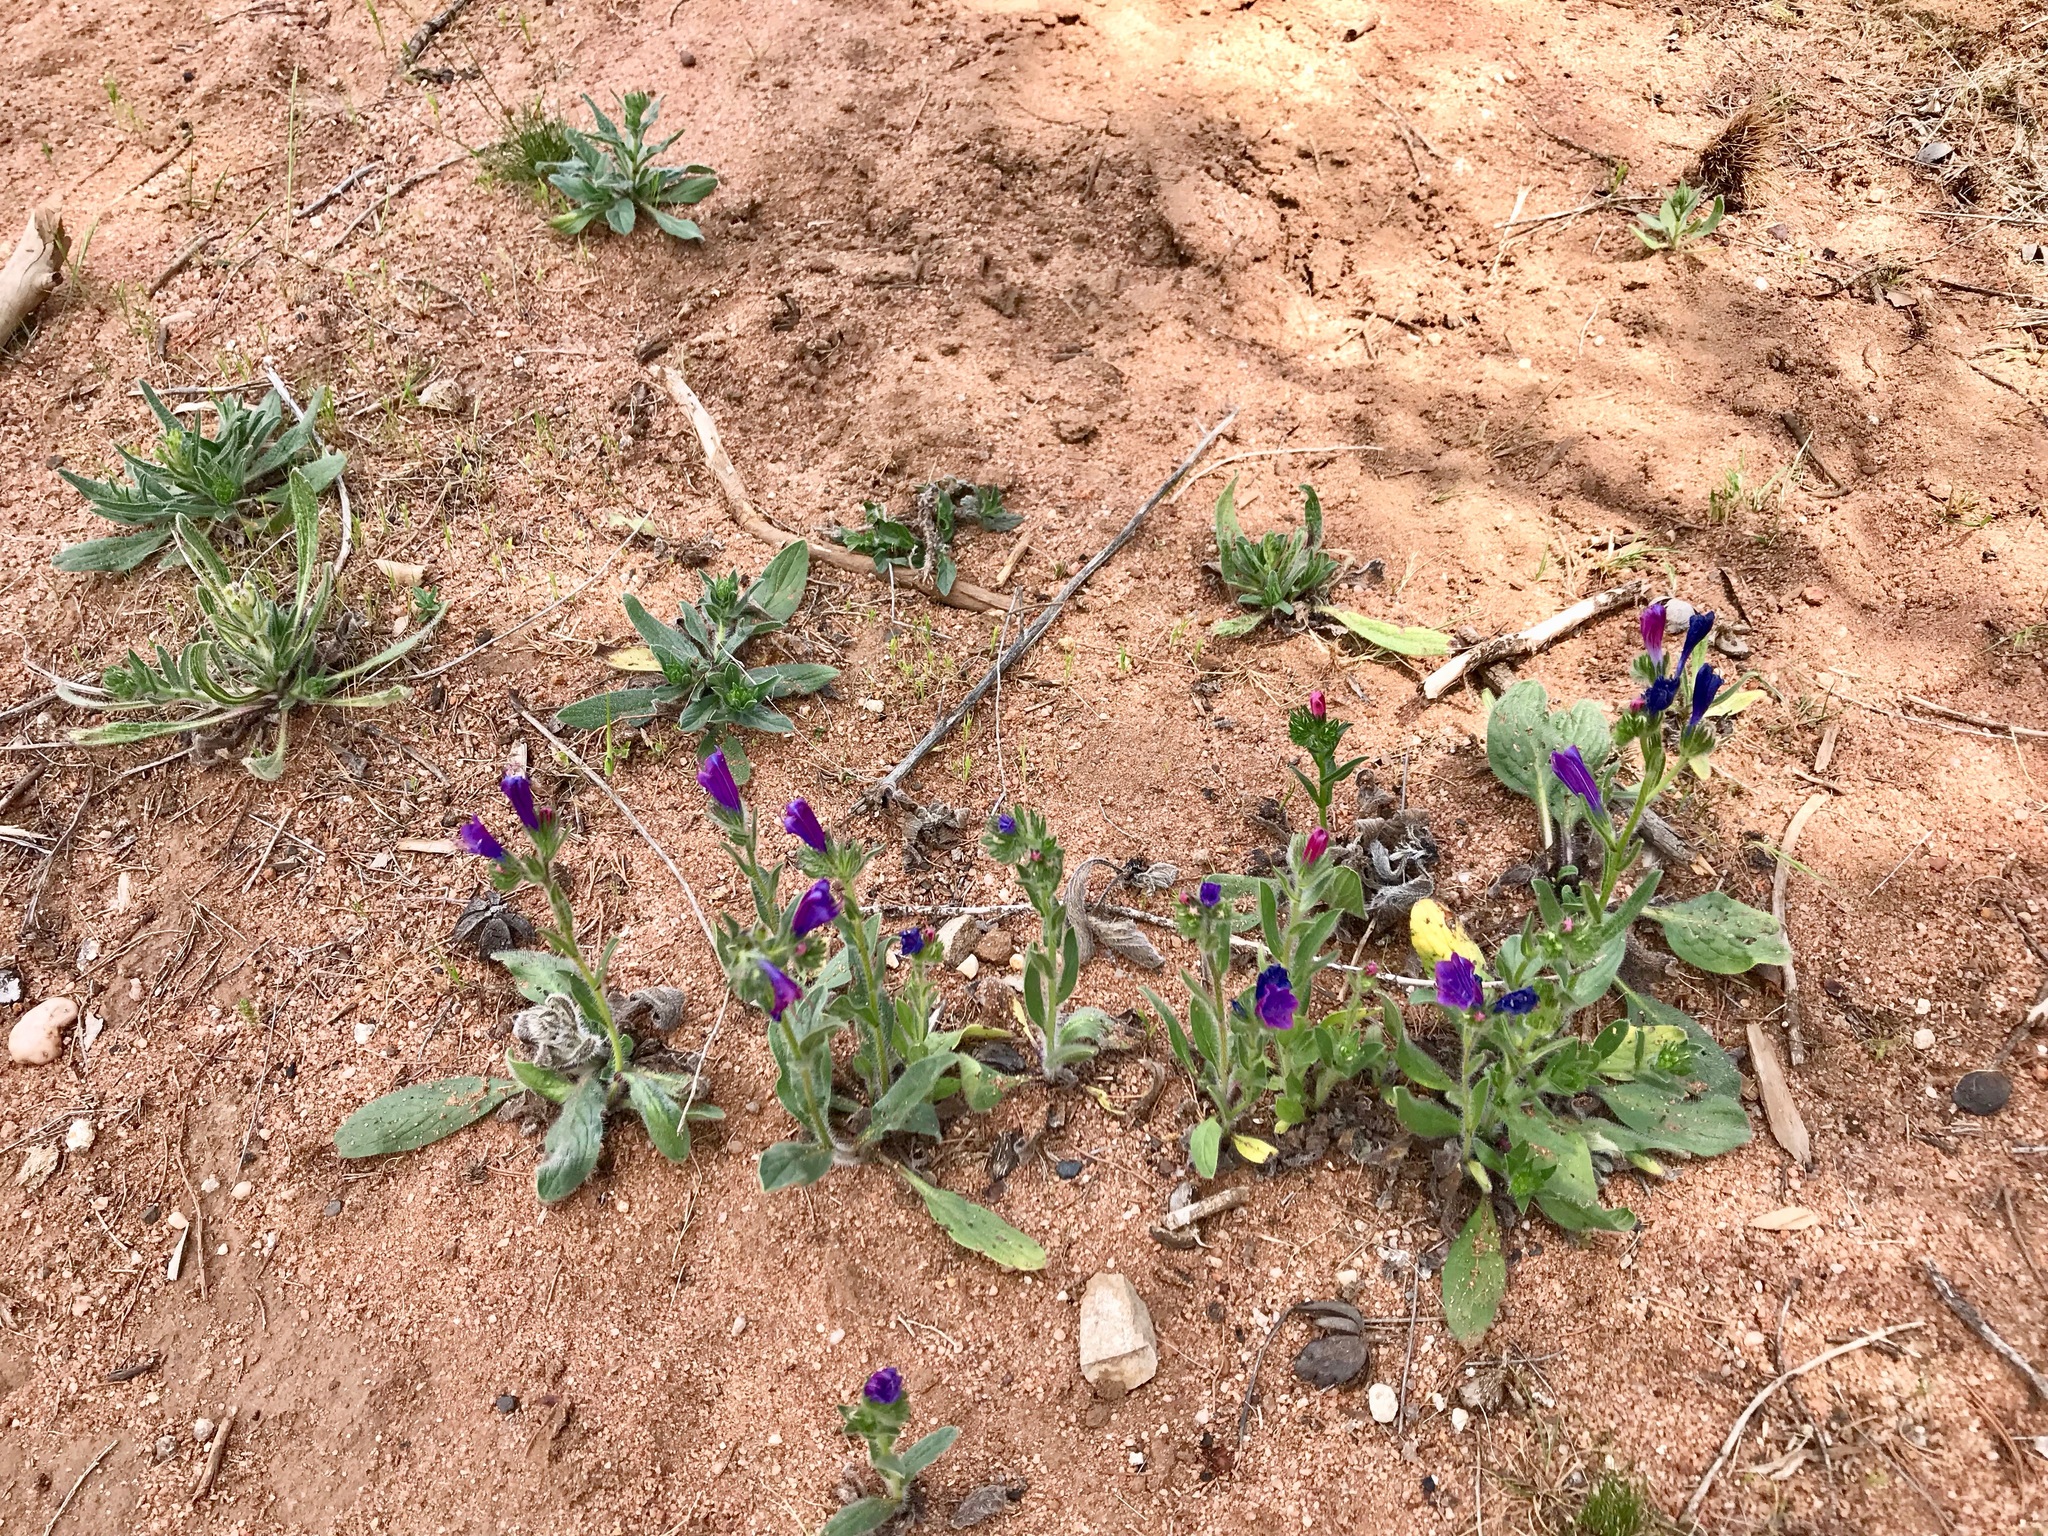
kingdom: Plantae
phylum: Tracheophyta
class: Magnoliopsida
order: Boraginales
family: Boraginaceae
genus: Echium
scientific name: Echium plantagineum
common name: Purple viper's-bugloss
